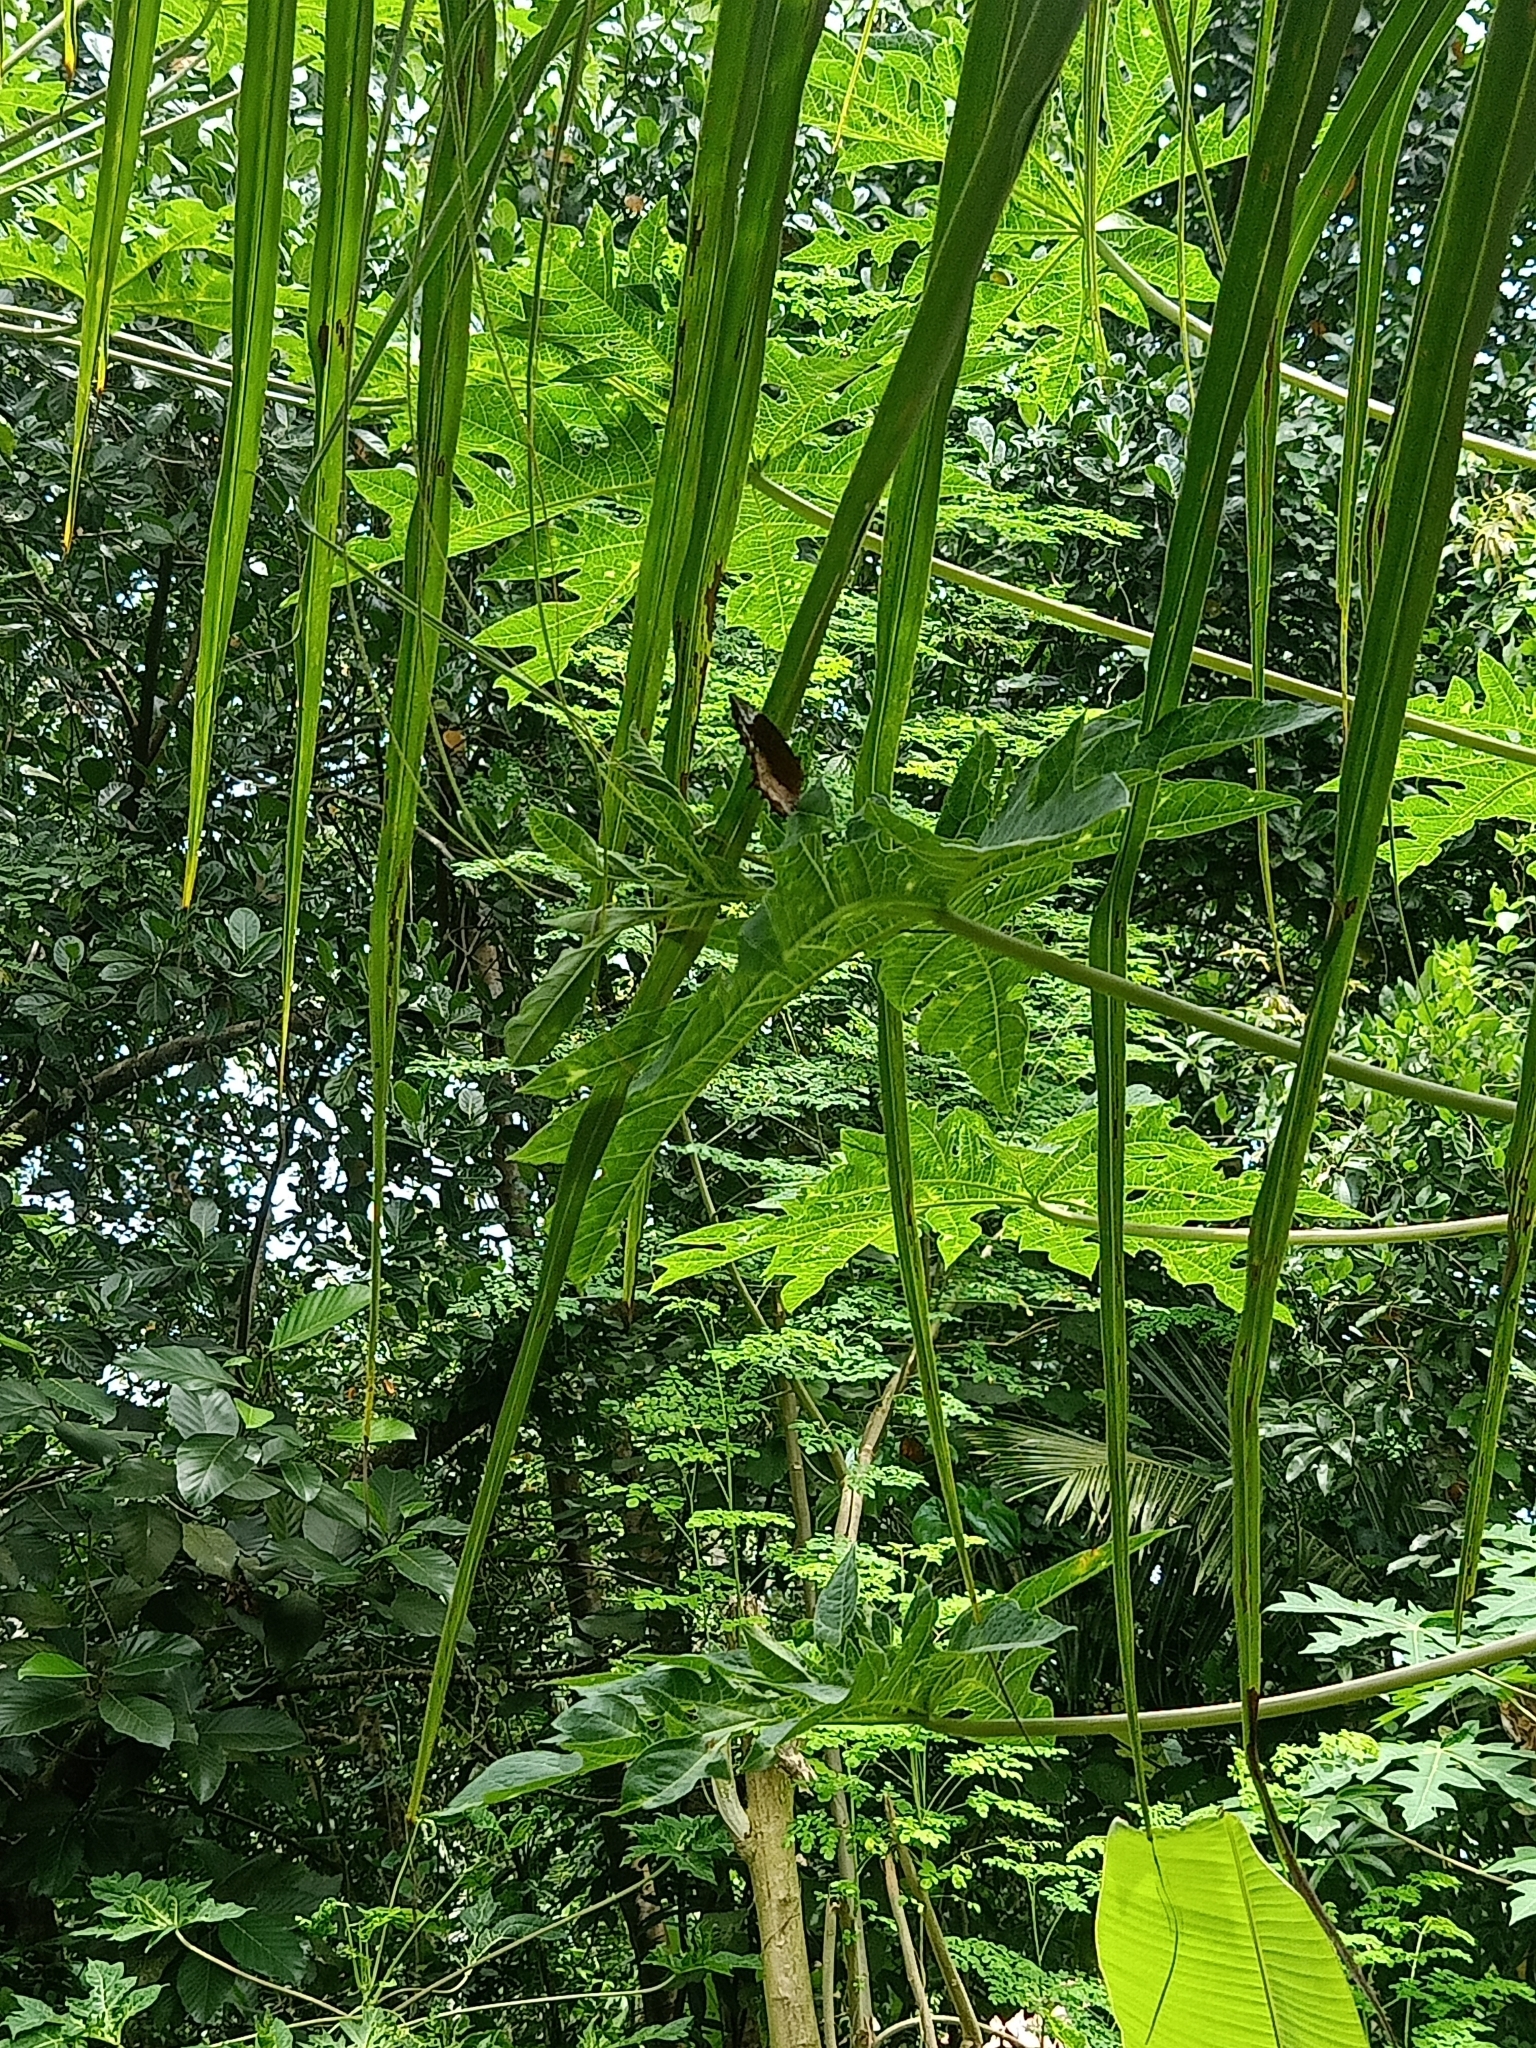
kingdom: Animalia
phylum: Arthropoda
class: Insecta
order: Lepidoptera
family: Nymphalidae
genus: Elymnias
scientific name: Elymnias caudata
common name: Tailed palmfly
